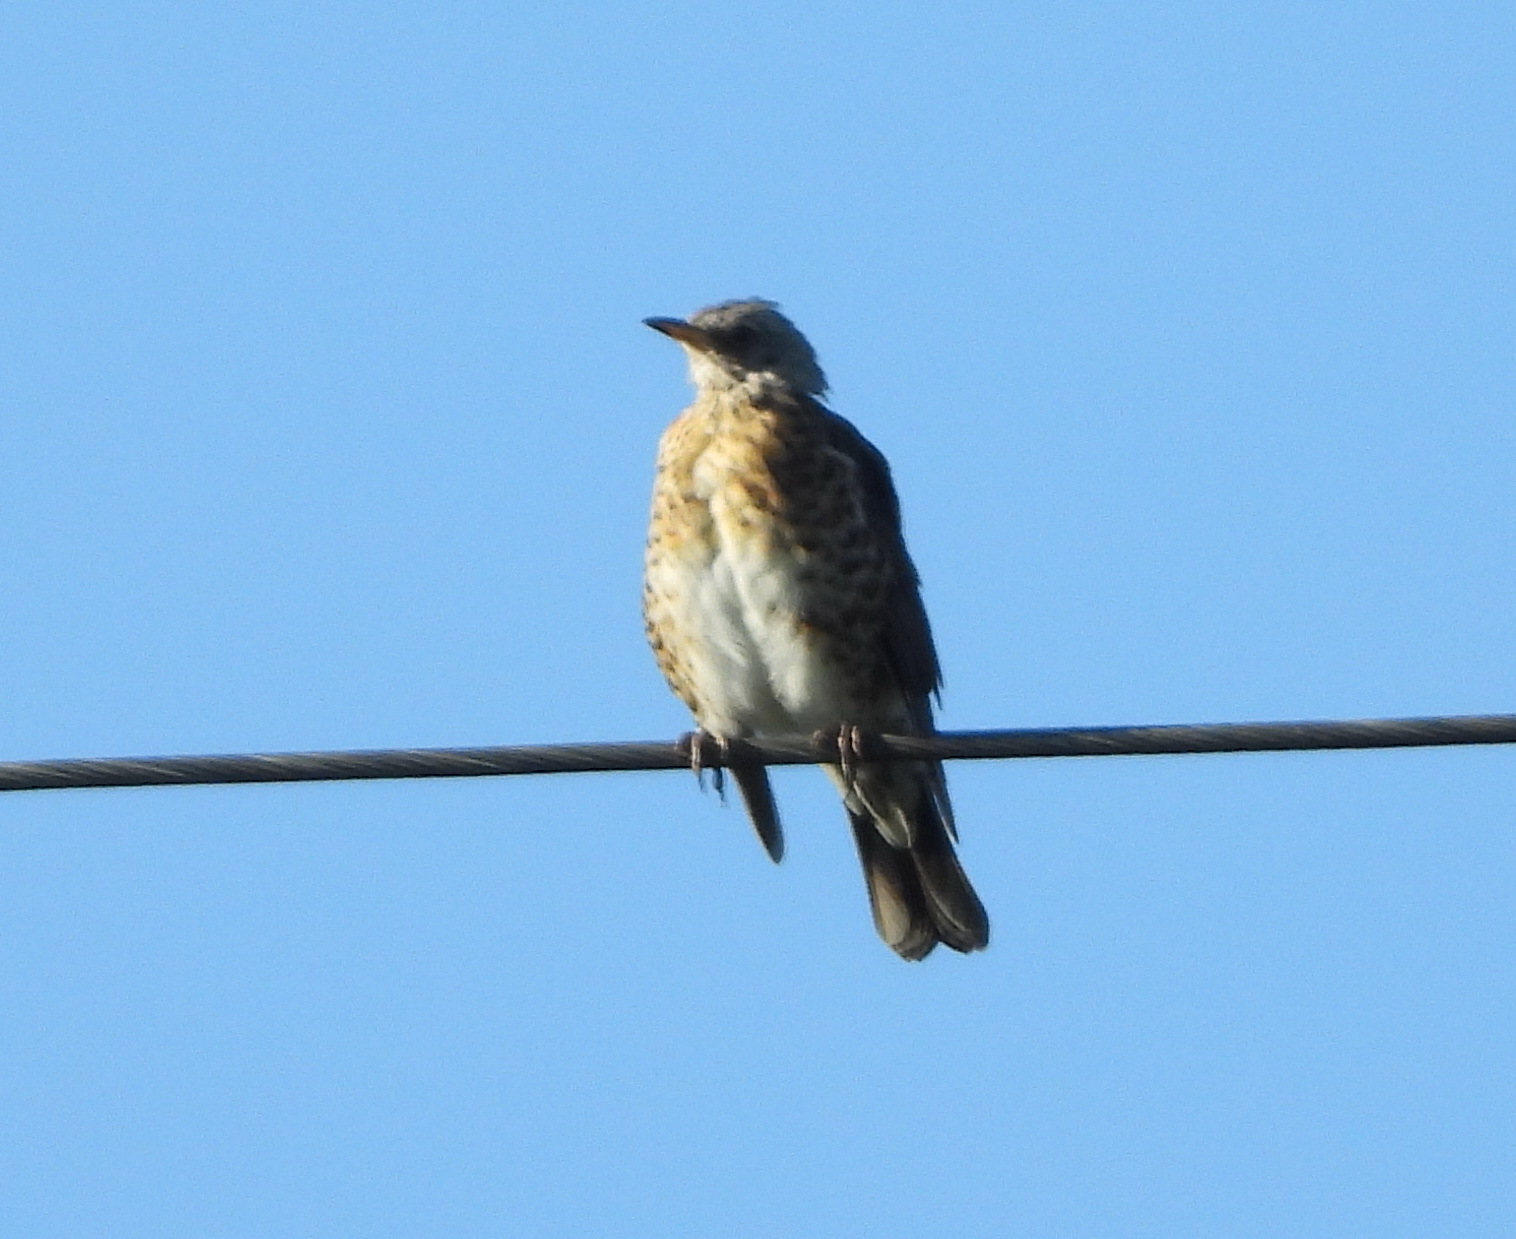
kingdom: Animalia
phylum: Chordata
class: Aves
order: Passeriformes
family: Turdidae
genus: Turdus
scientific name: Turdus pilaris
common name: Fieldfare
